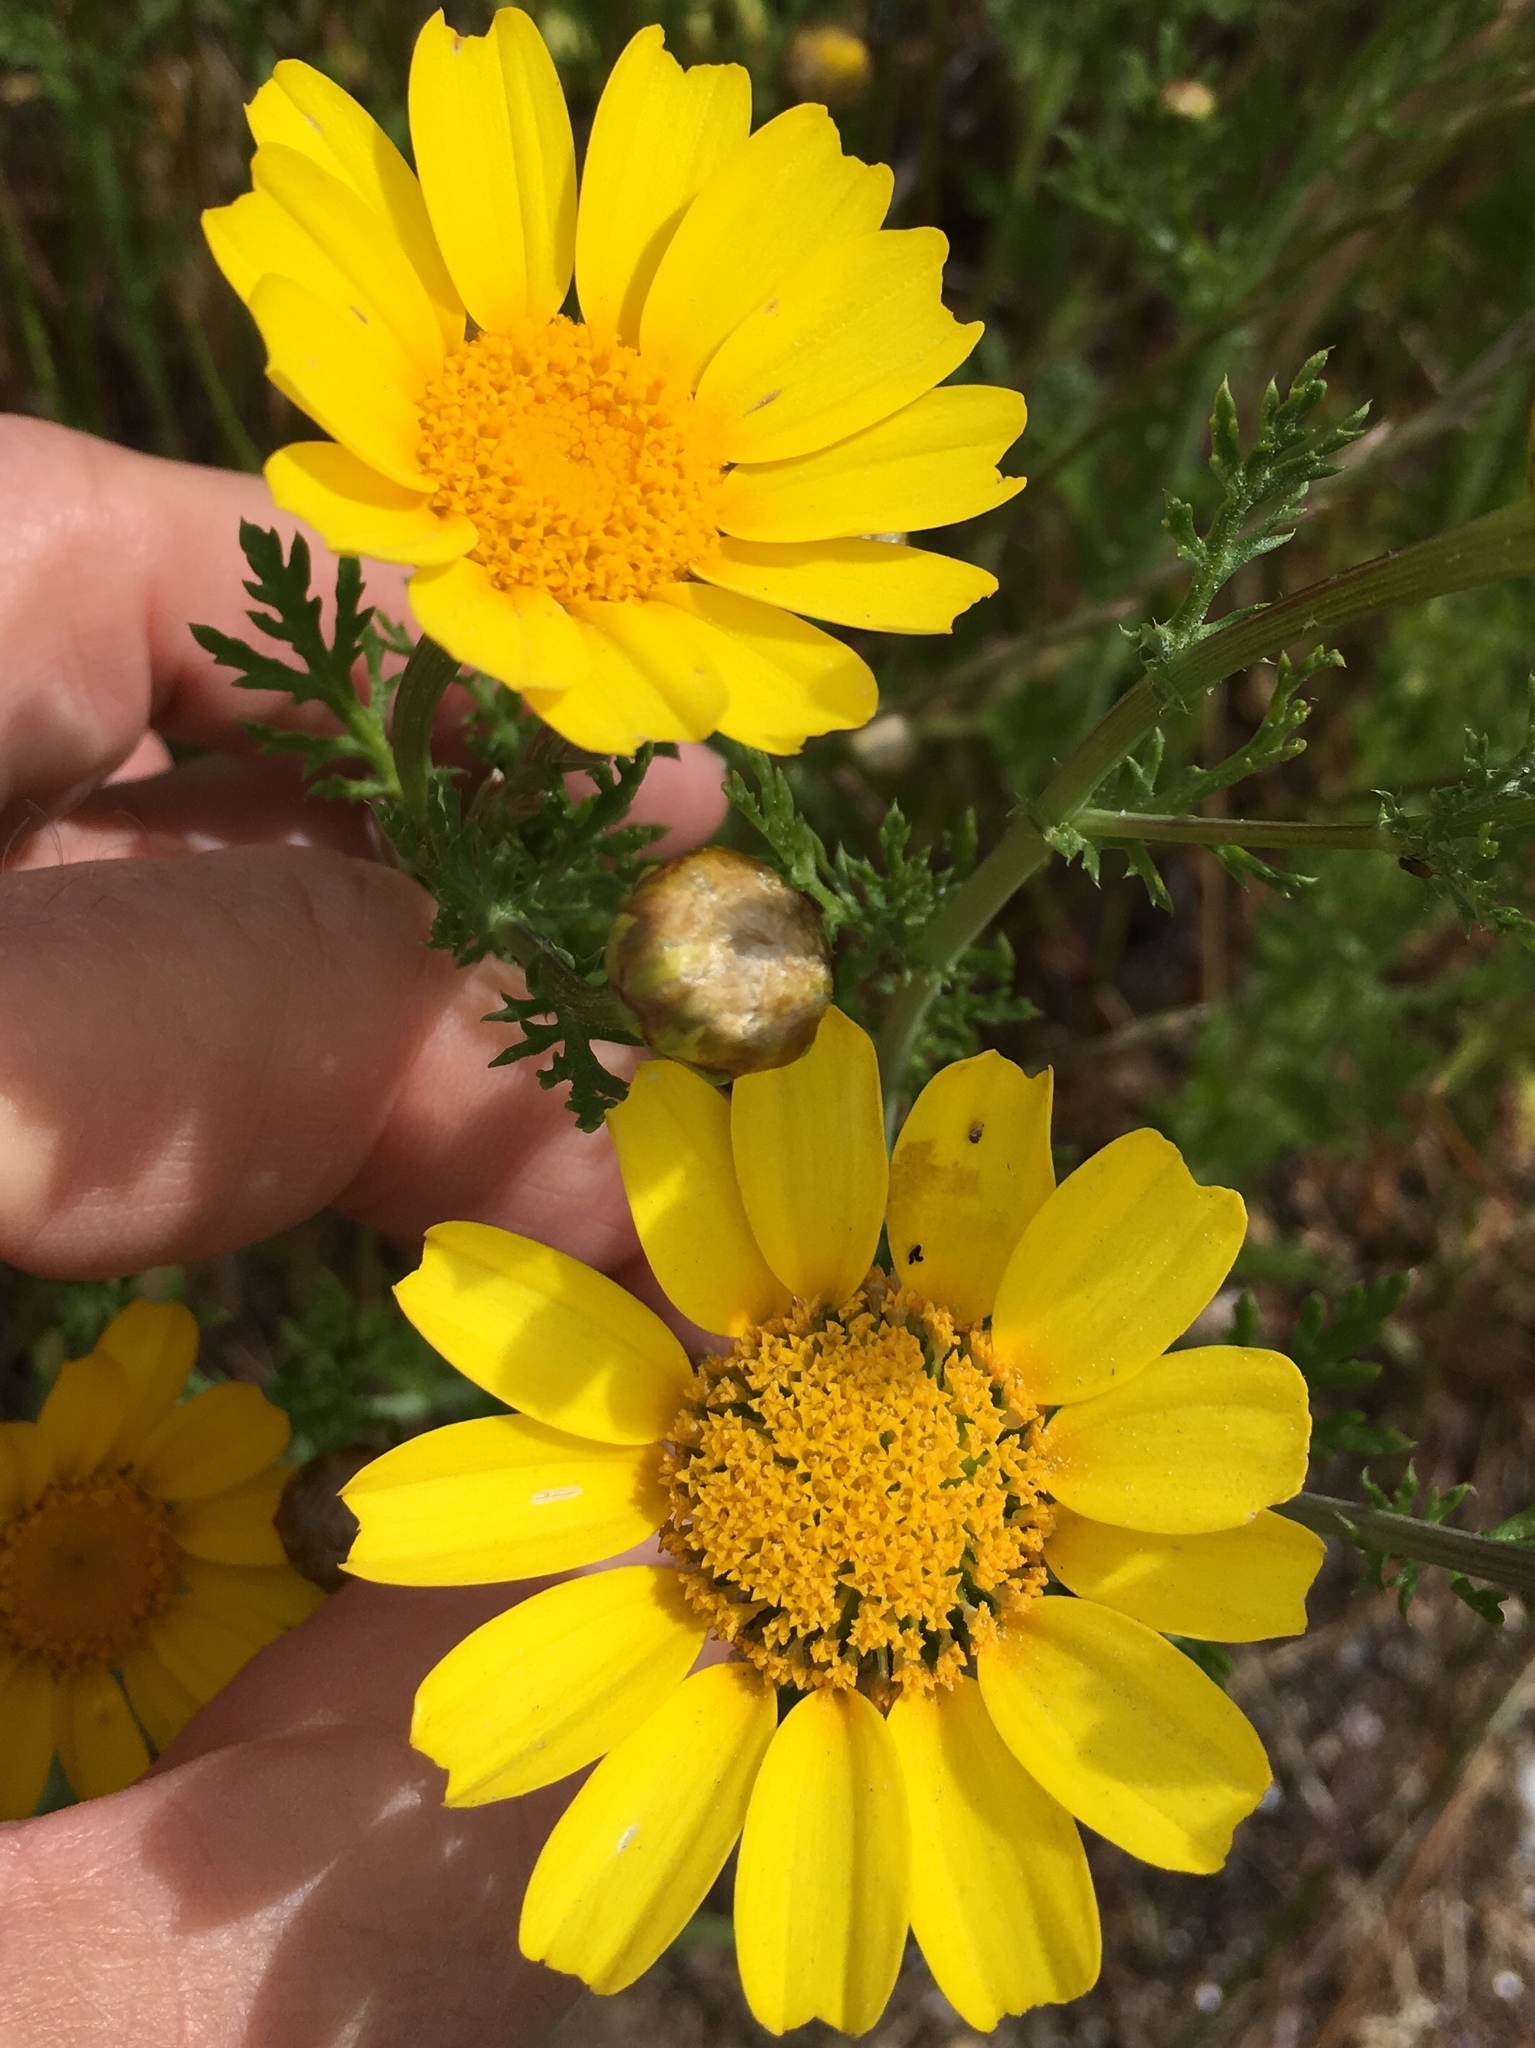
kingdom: Plantae
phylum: Tracheophyta
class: Magnoliopsida
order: Asterales
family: Asteraceae
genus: Glebionis
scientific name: Glebionis coronaria
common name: Crowndaisy
